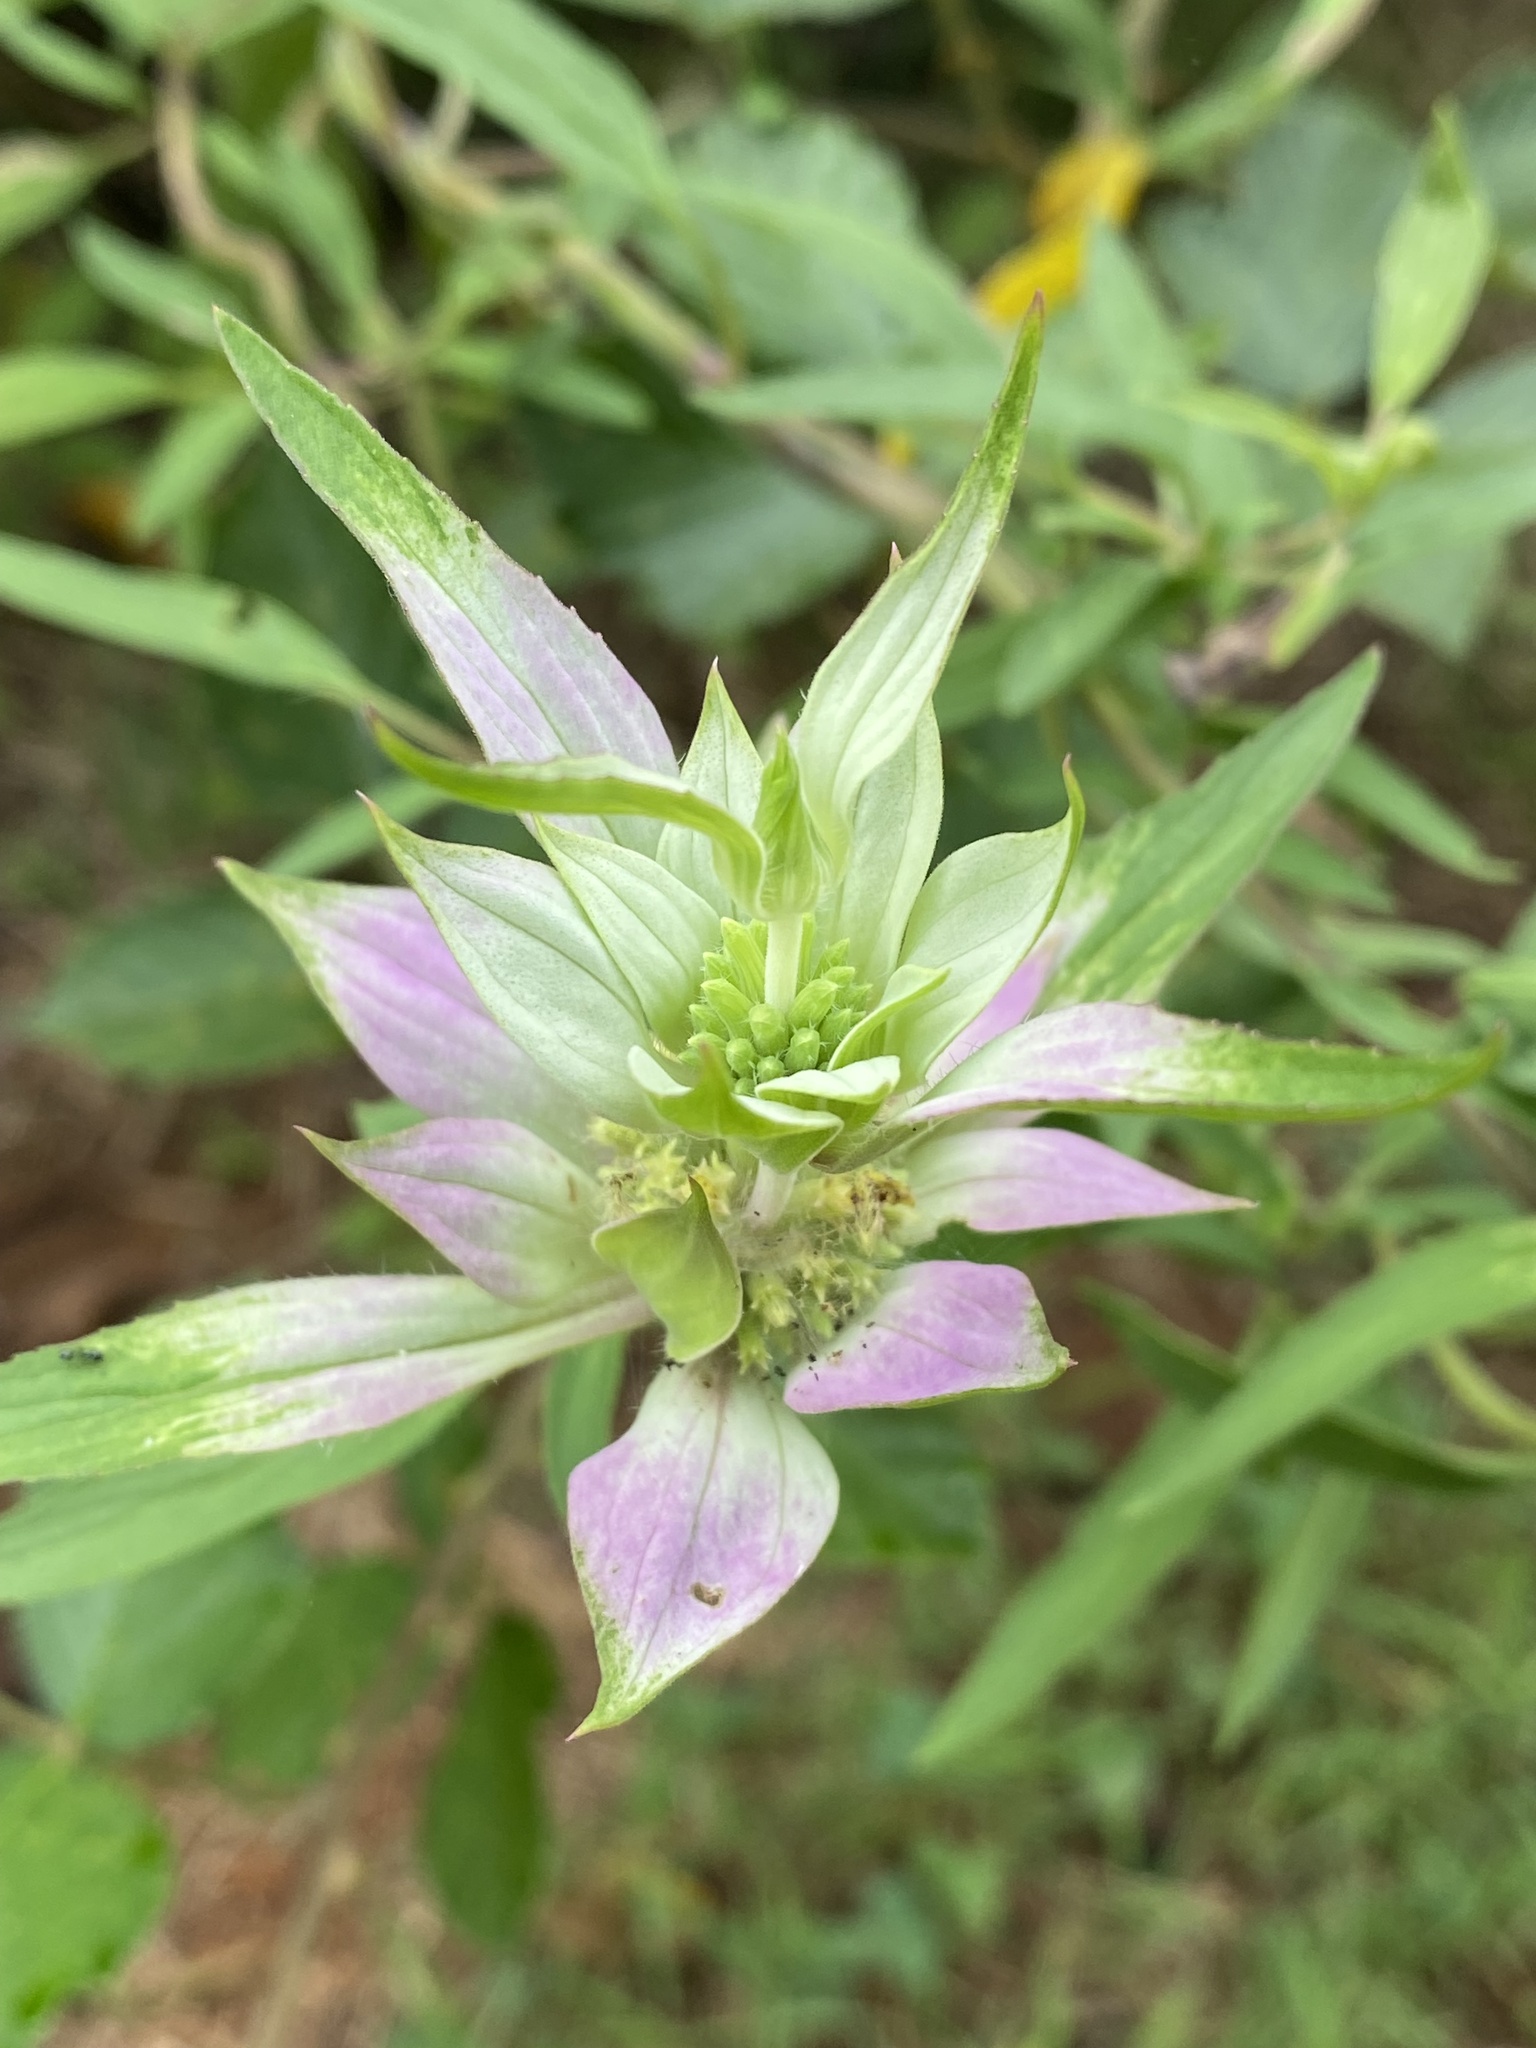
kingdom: Plantae
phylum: Tracheophyta
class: Magnoliopsida
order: Lamiales
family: Lamiaceae
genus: Monarda
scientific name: Monarda punctata
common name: Dotted monarda
